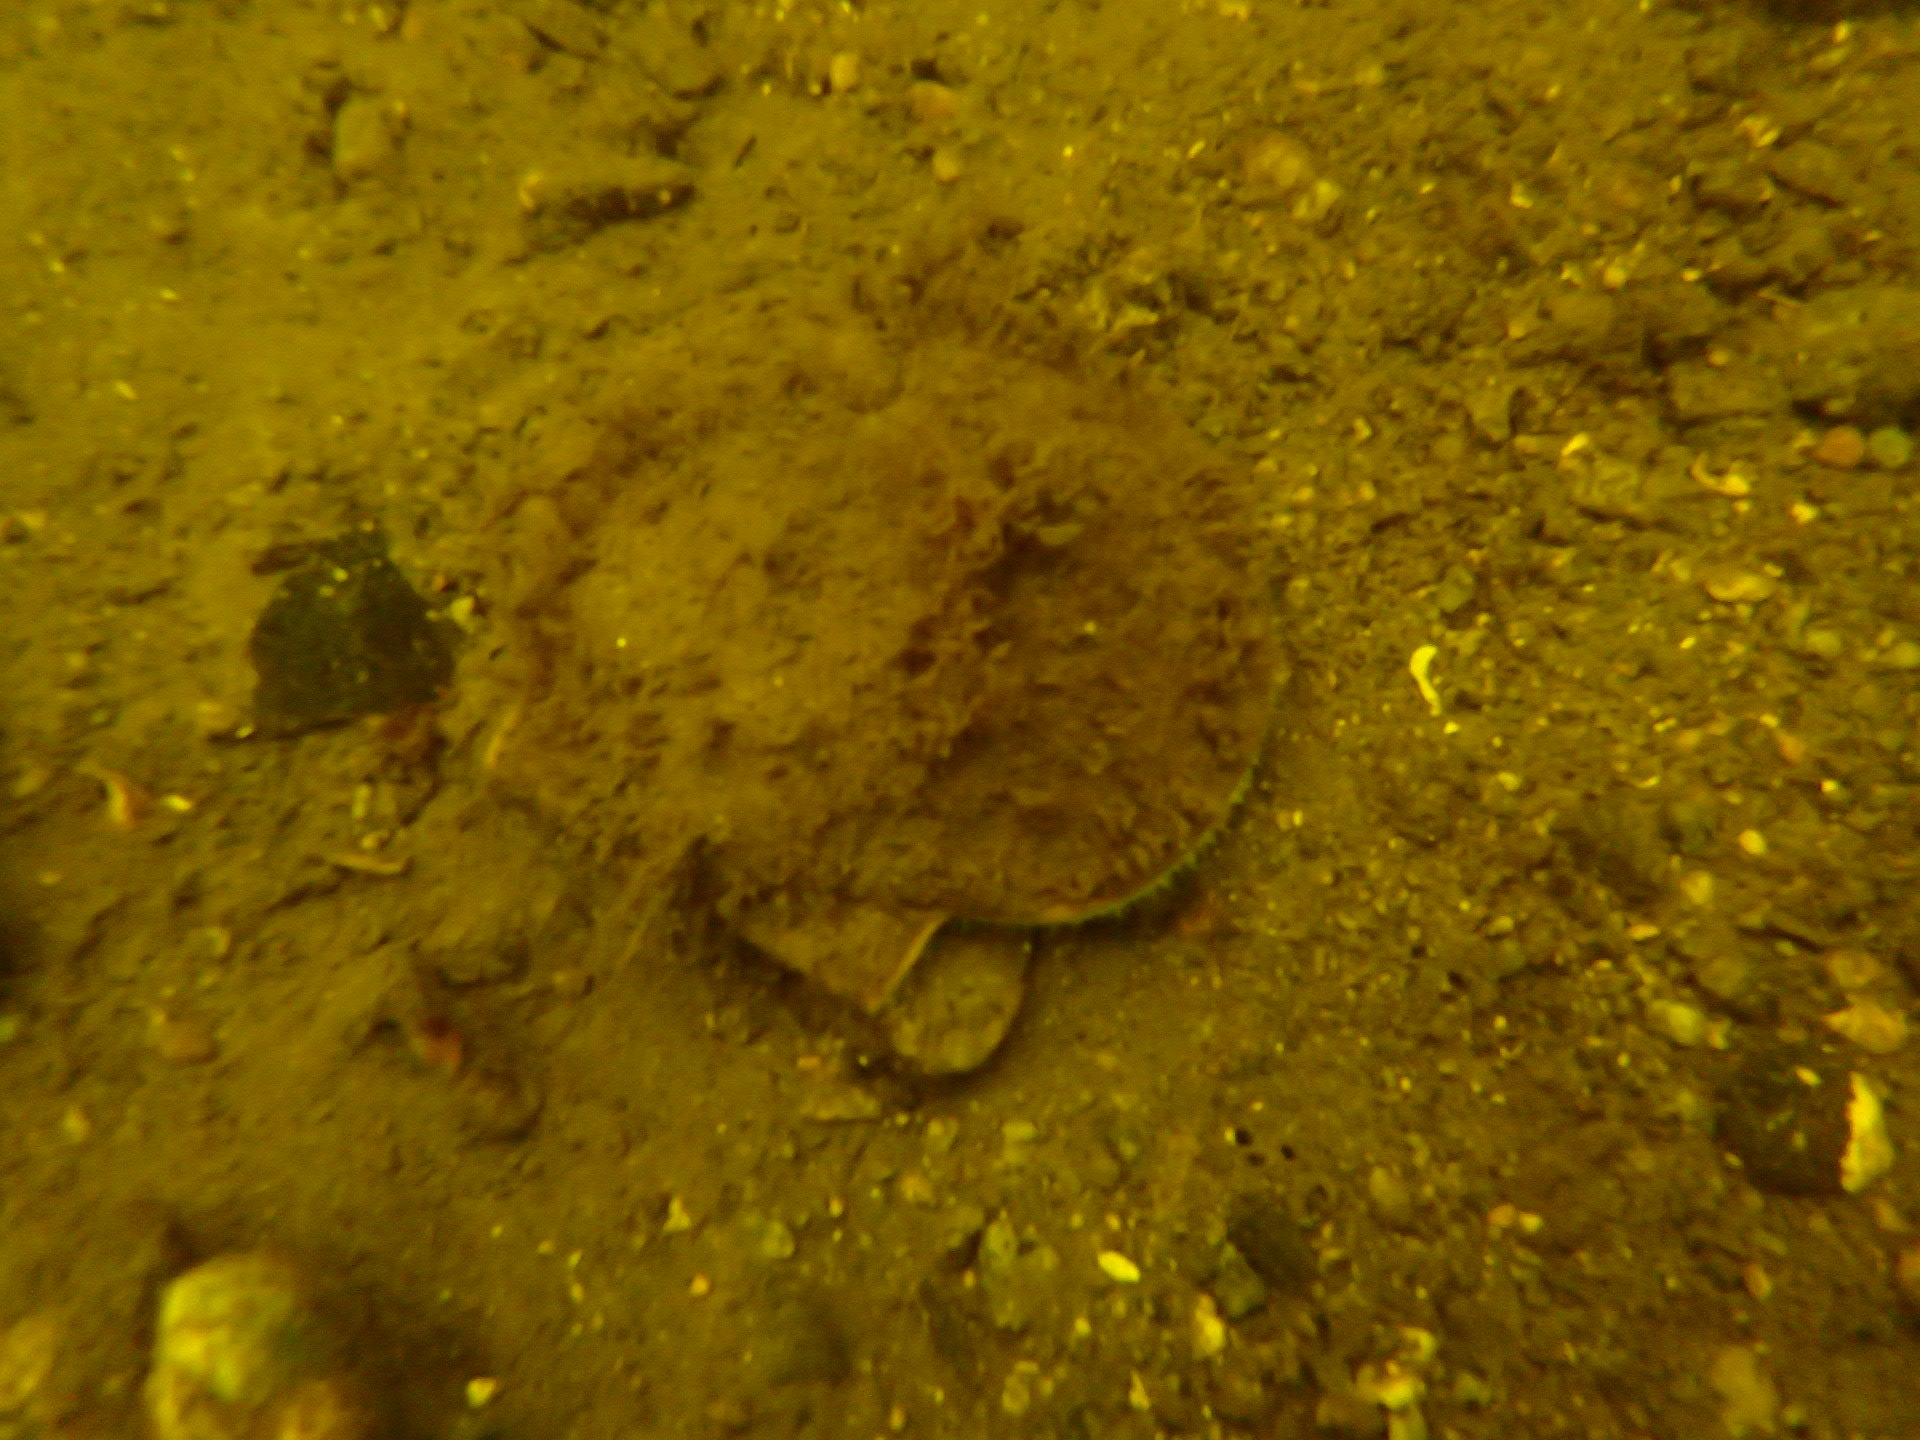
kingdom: Animalia
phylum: Mollusca
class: Bivalvia
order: Pectinida
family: Pectinidae
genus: Placopecten
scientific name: Placopecten magellanicus
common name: American sea scallop
